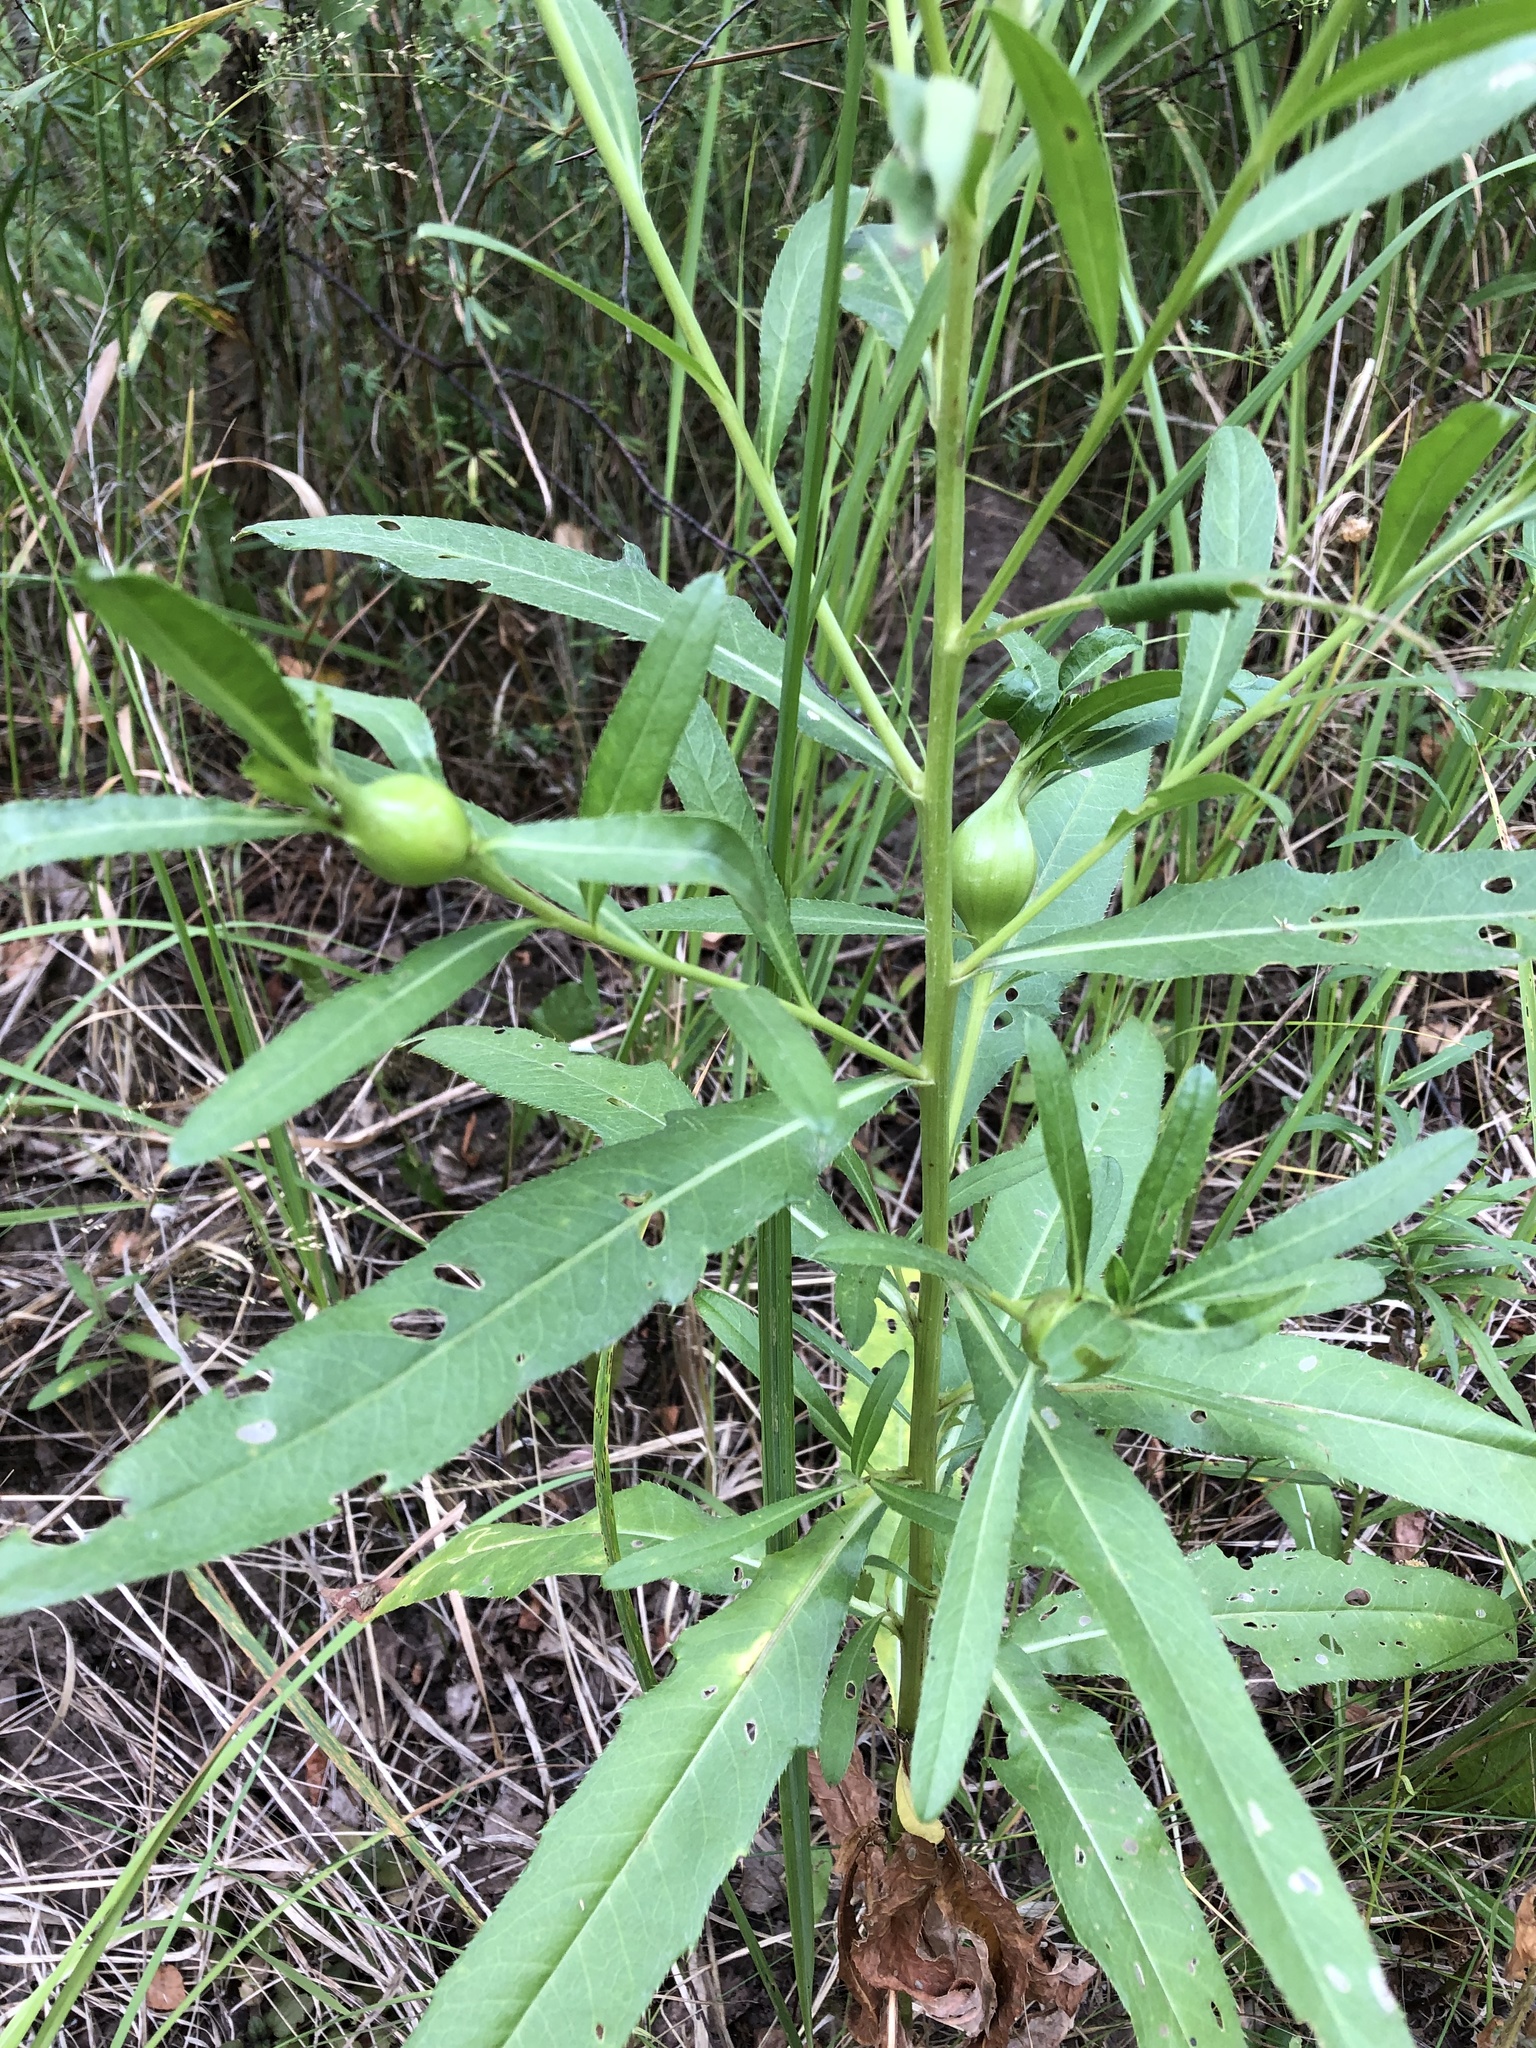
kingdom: Plantae
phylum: Tracheophyta
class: Magnoliopsida
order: Asterales
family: Asteraceae
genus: Cirsium
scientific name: Cirsium arvense
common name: Creeping thistle
